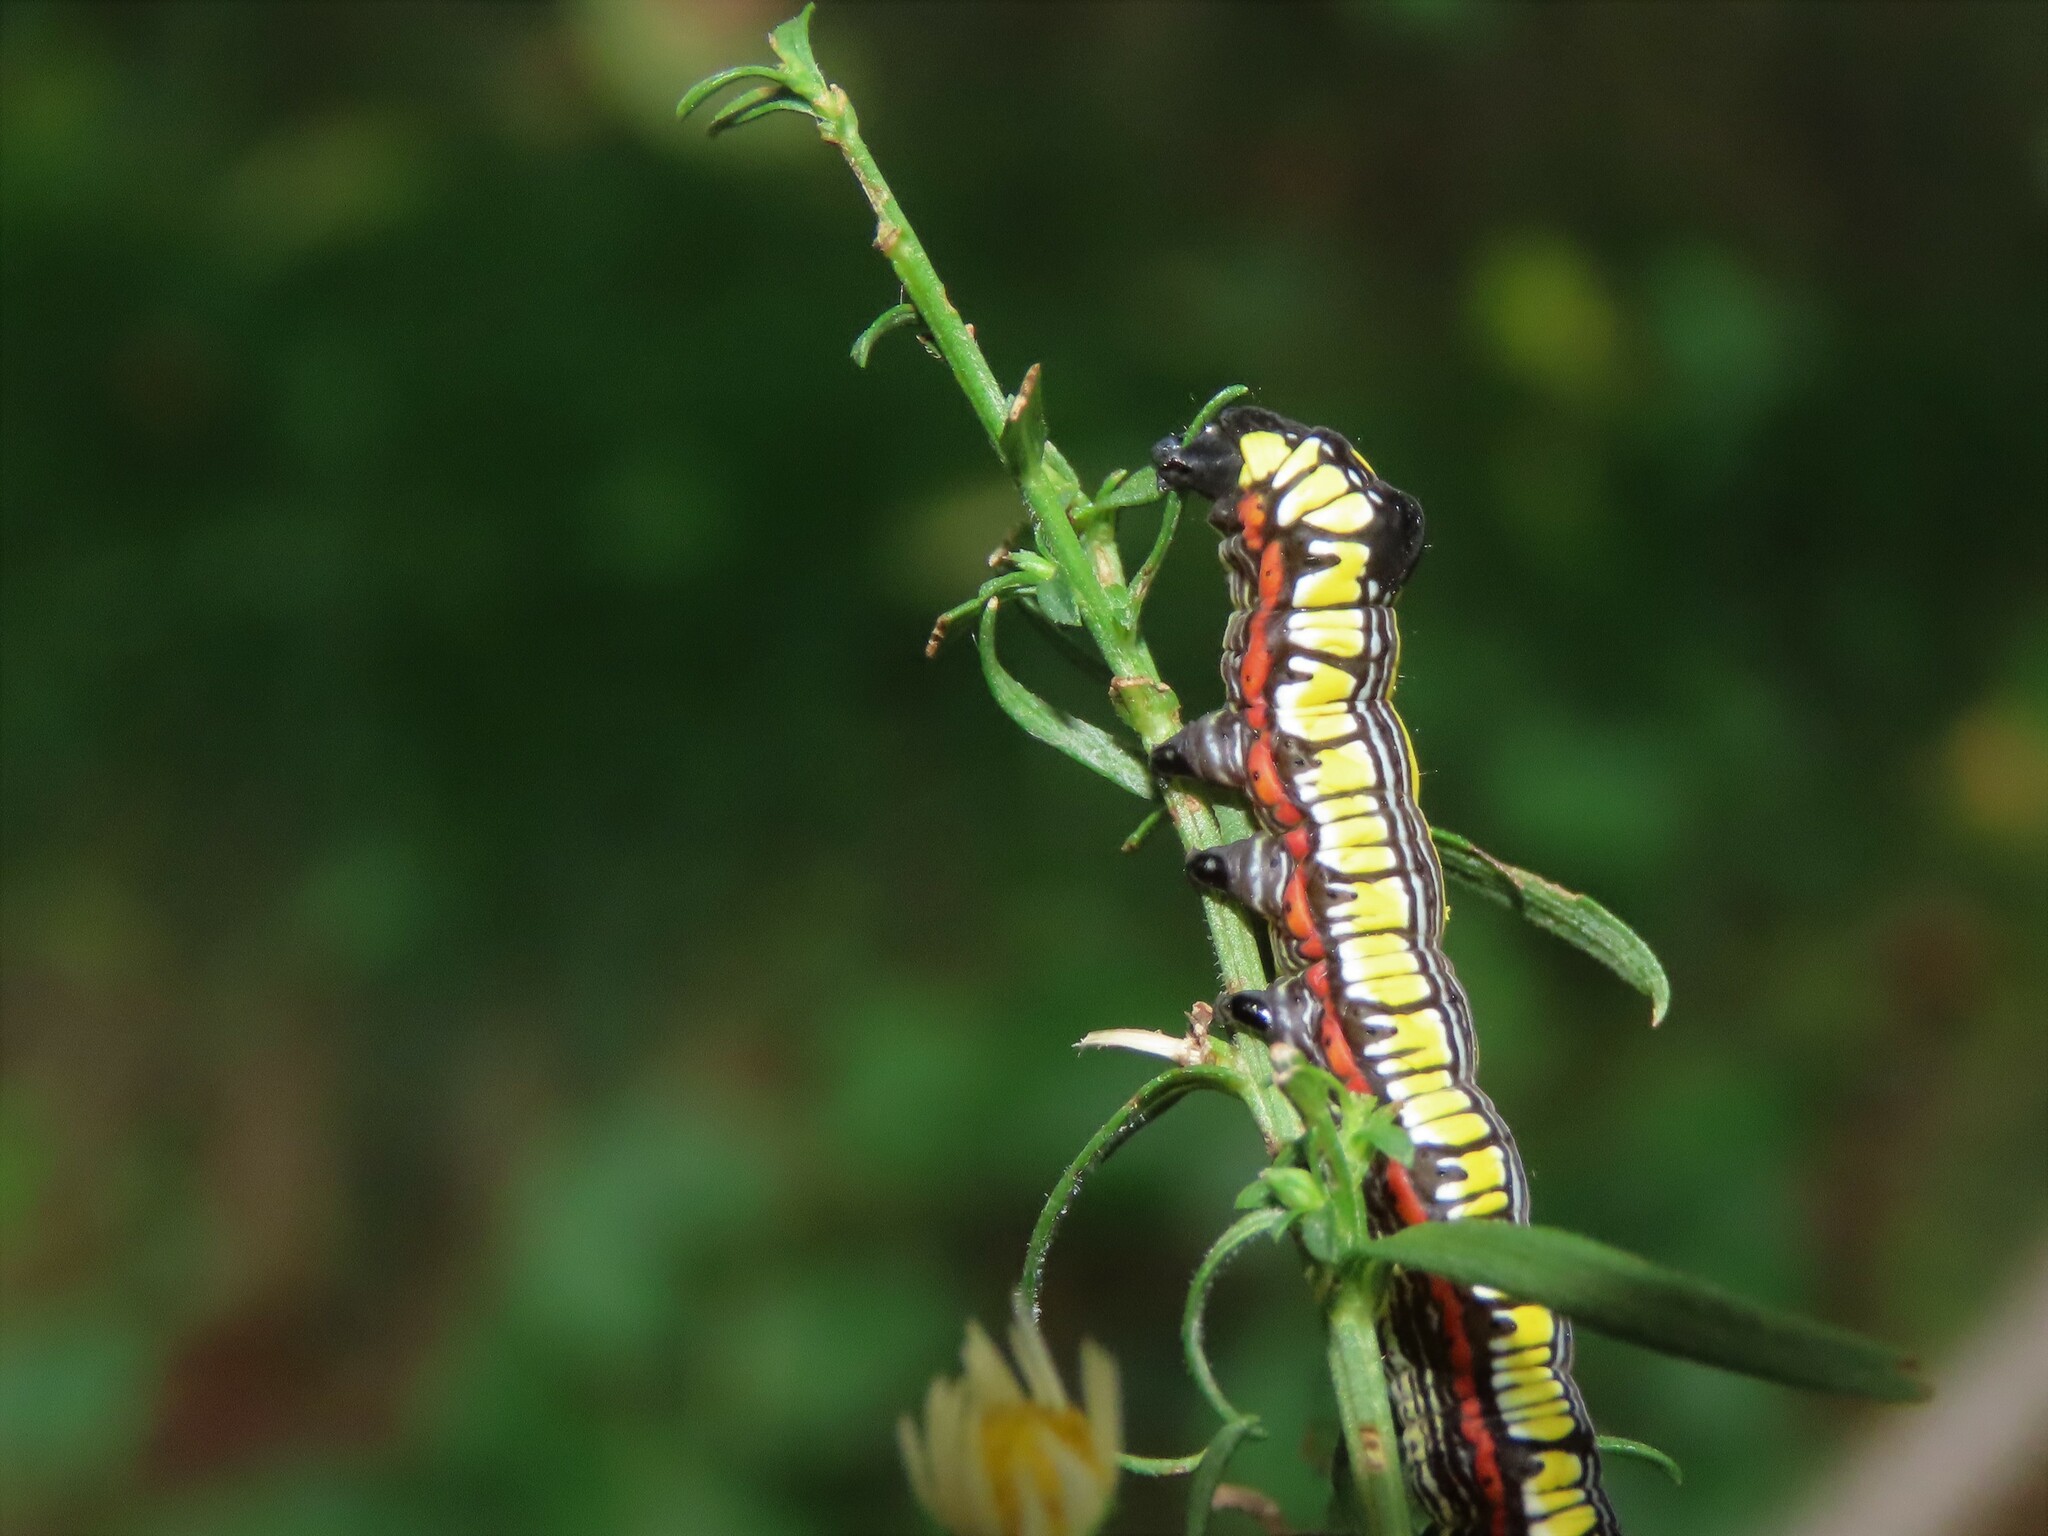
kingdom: Animalia
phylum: Arthropoda
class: Insecta
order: Lepidoptera
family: Noctuidae
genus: Cucullia
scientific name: Cucullia convexipennis
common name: Brown-hooded owlet
